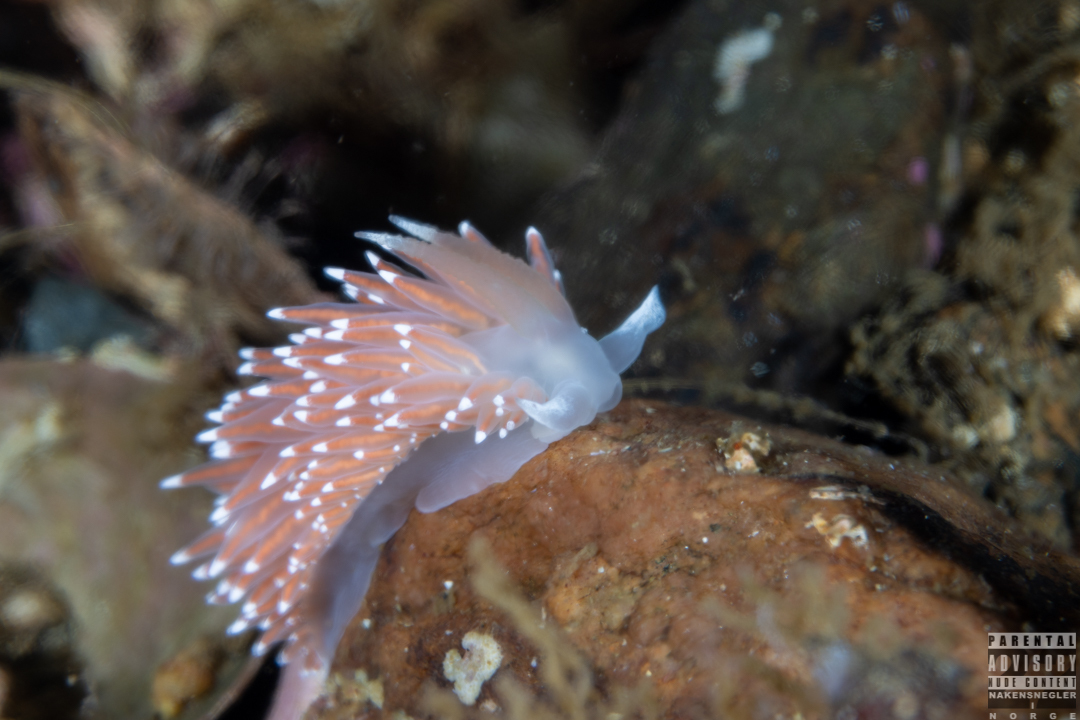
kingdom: Animalia
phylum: Mollusca
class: Gastropoda
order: Nudibranchia
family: Coryphellidae
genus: Coryphella
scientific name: Coryphella nobilis
